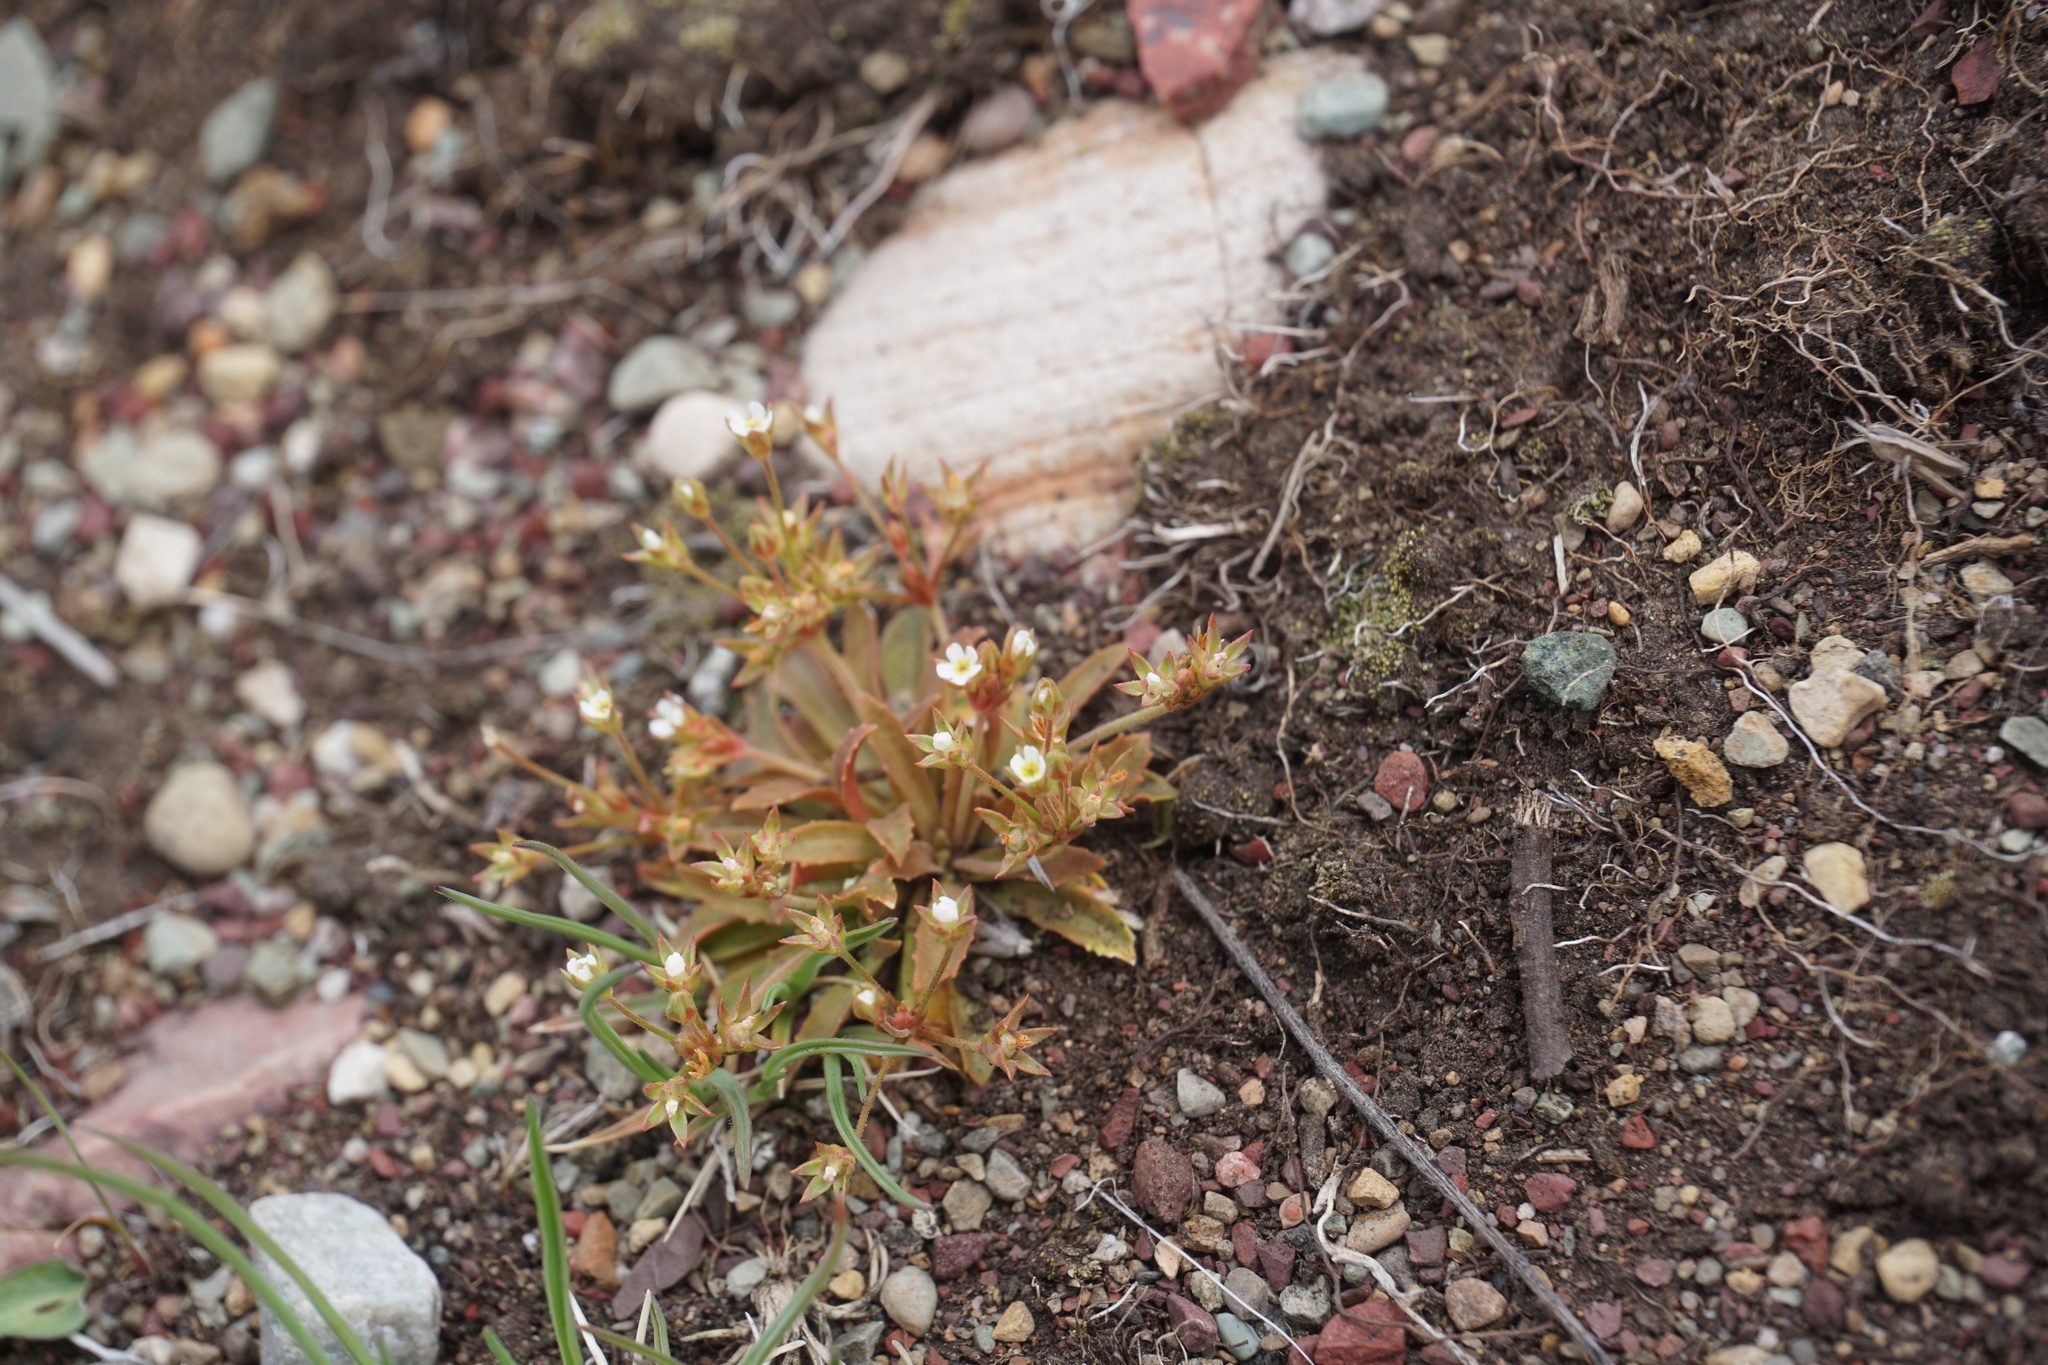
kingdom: Plantae
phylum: Tracheophyta
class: Magnoliopsida
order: Ericales
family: Primulaceae
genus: Androsace
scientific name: Androsace septentrionalis
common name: Hairy northern fairy-candelabra
